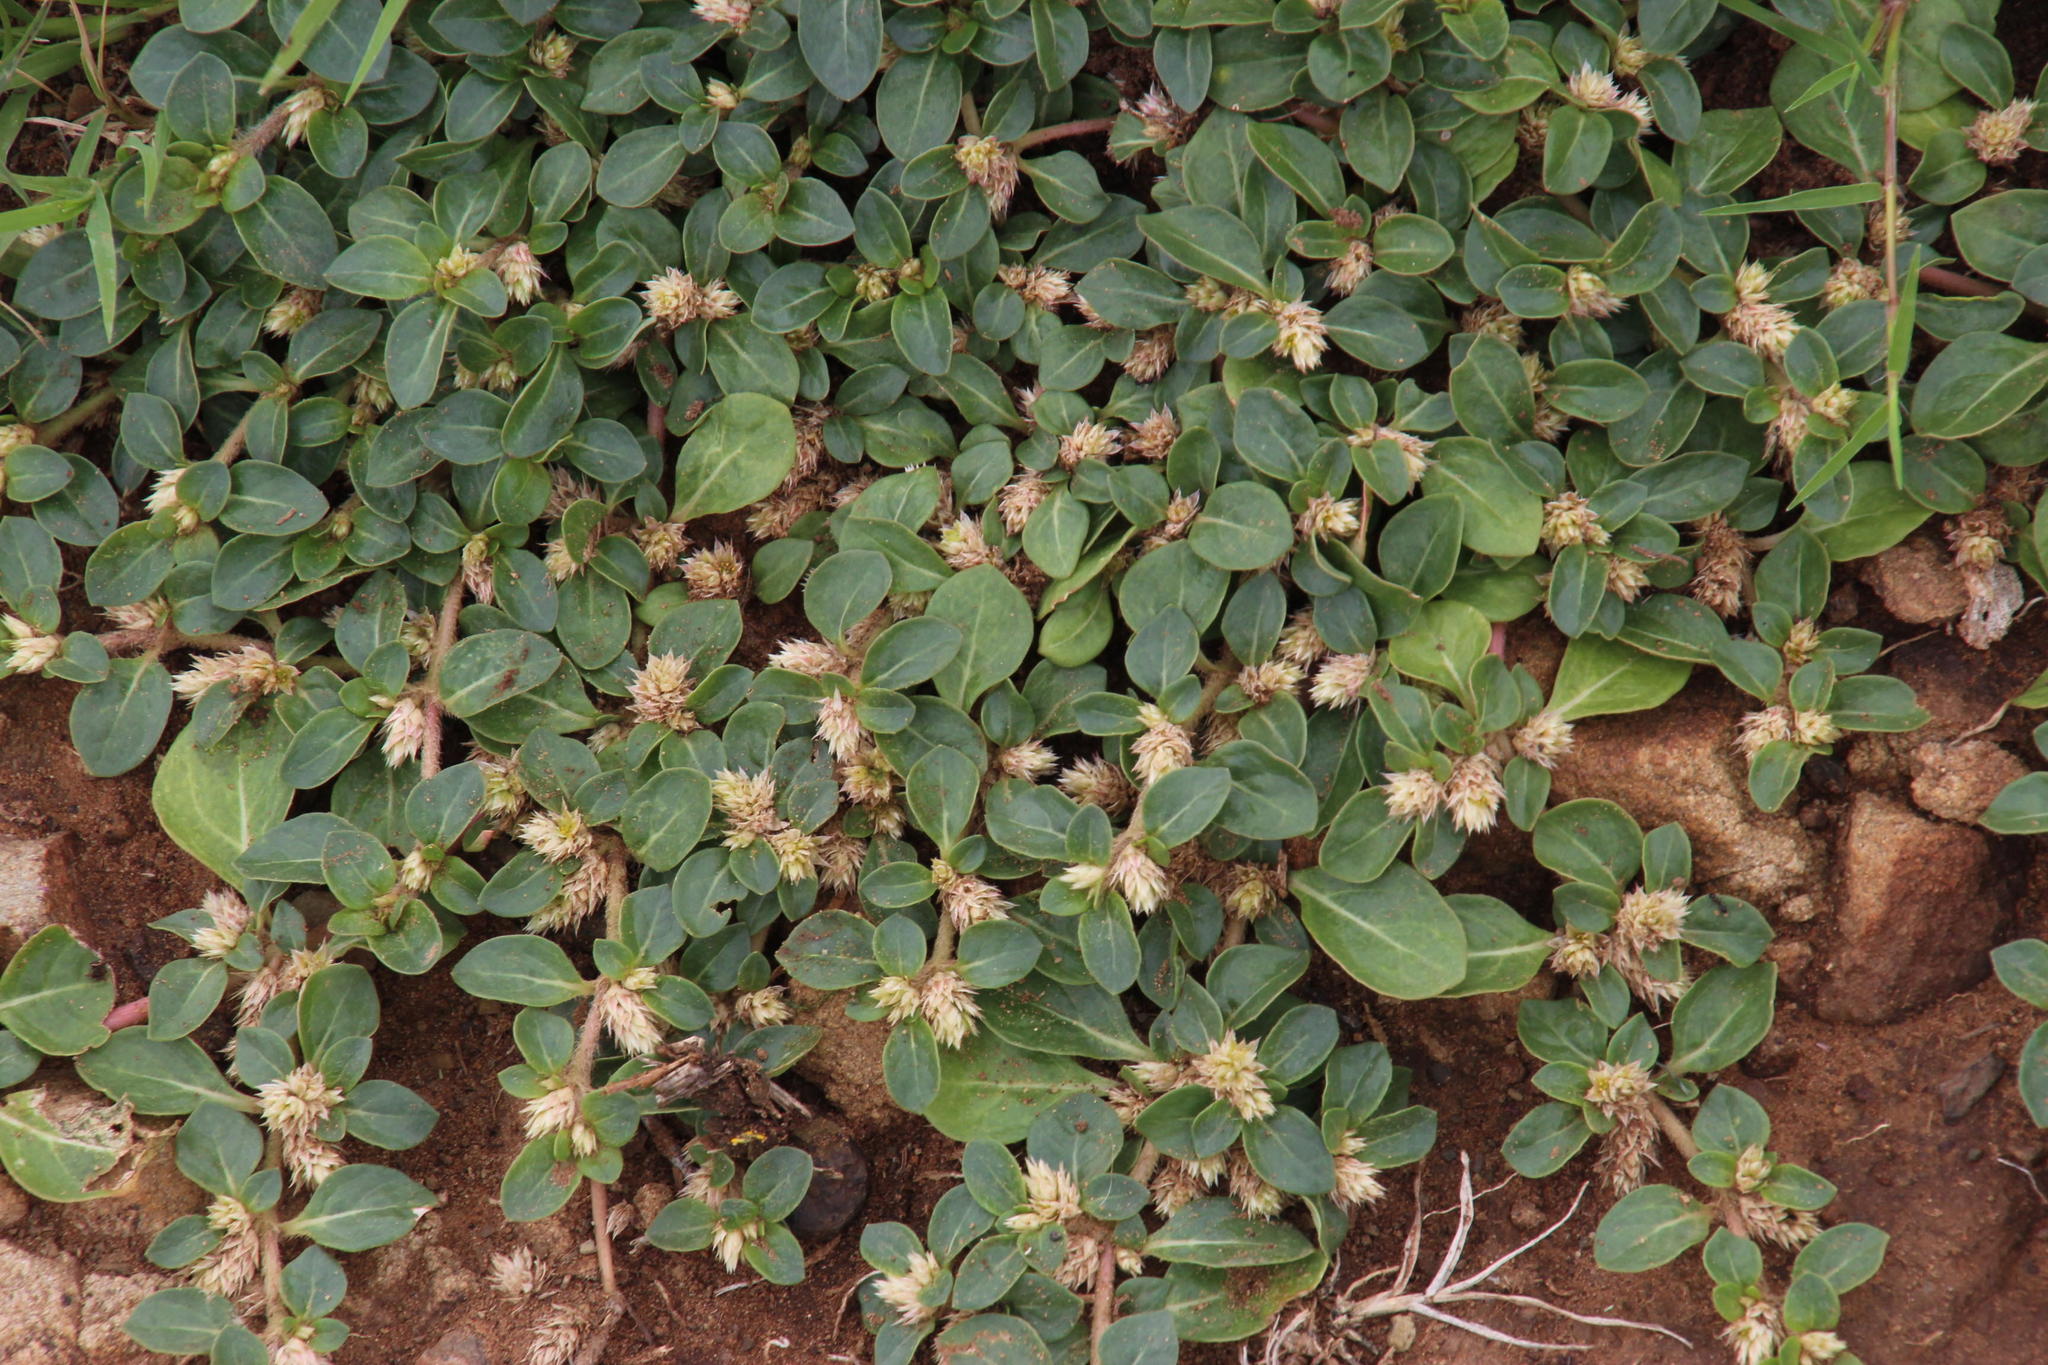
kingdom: Plantae
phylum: Tracheophyta
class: Magnoliopsida
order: Caryophyllales
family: Amaranthaceae
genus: Alternanthera
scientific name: Alternanthera pungens
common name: Khakiweed
